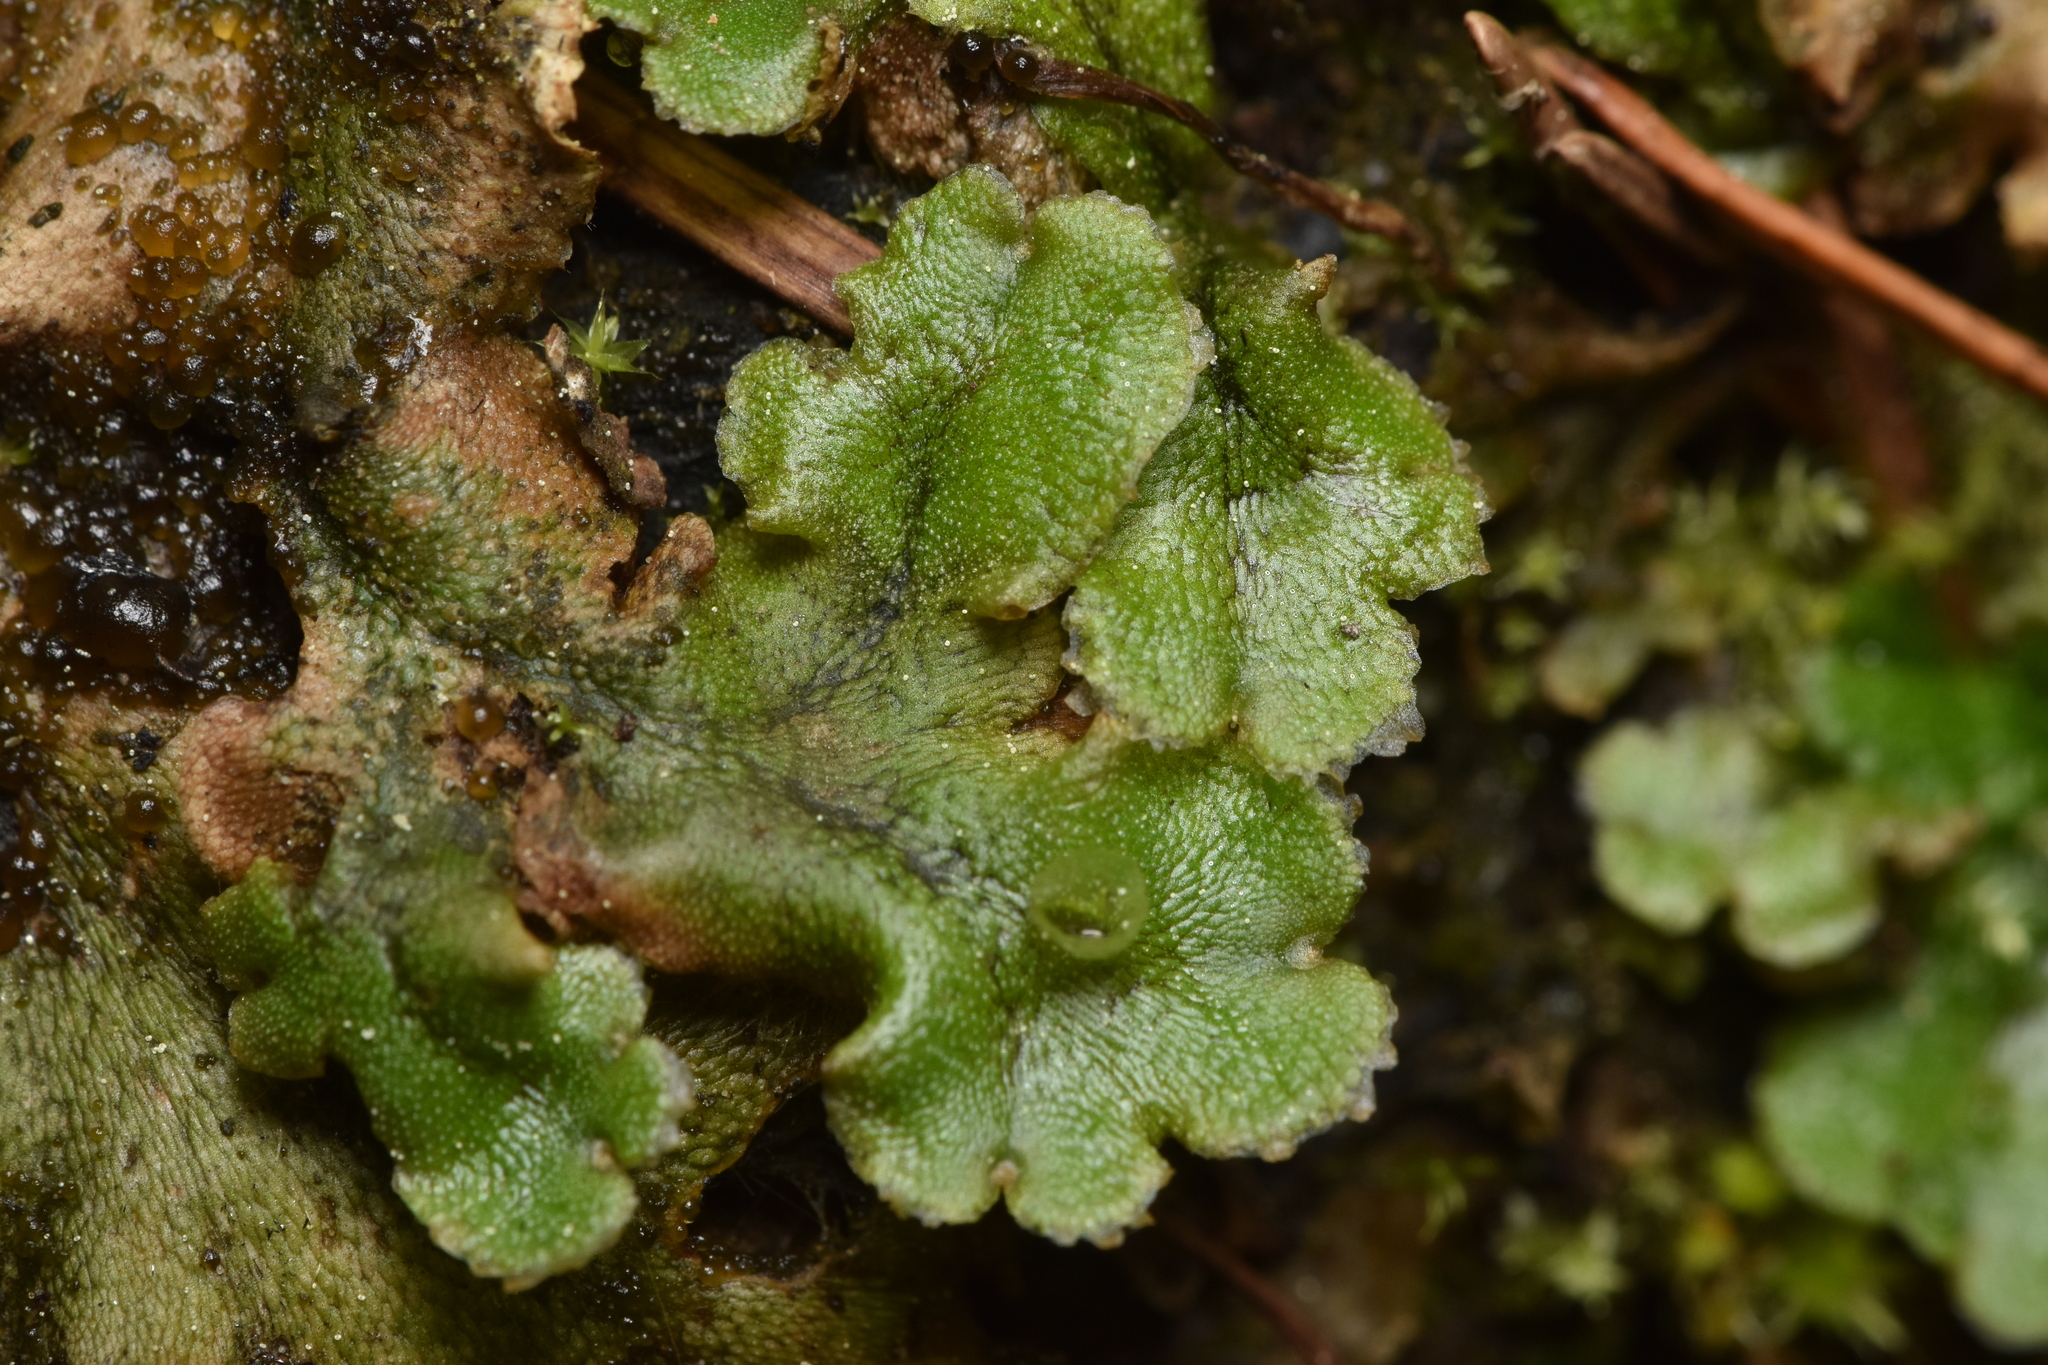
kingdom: Plantae
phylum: Marchantiophyta
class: Marchantiopsida
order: Marchantiales
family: Marchantiaceae
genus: Marchantia
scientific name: Marchantia polymorpha
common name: Common liverwort
